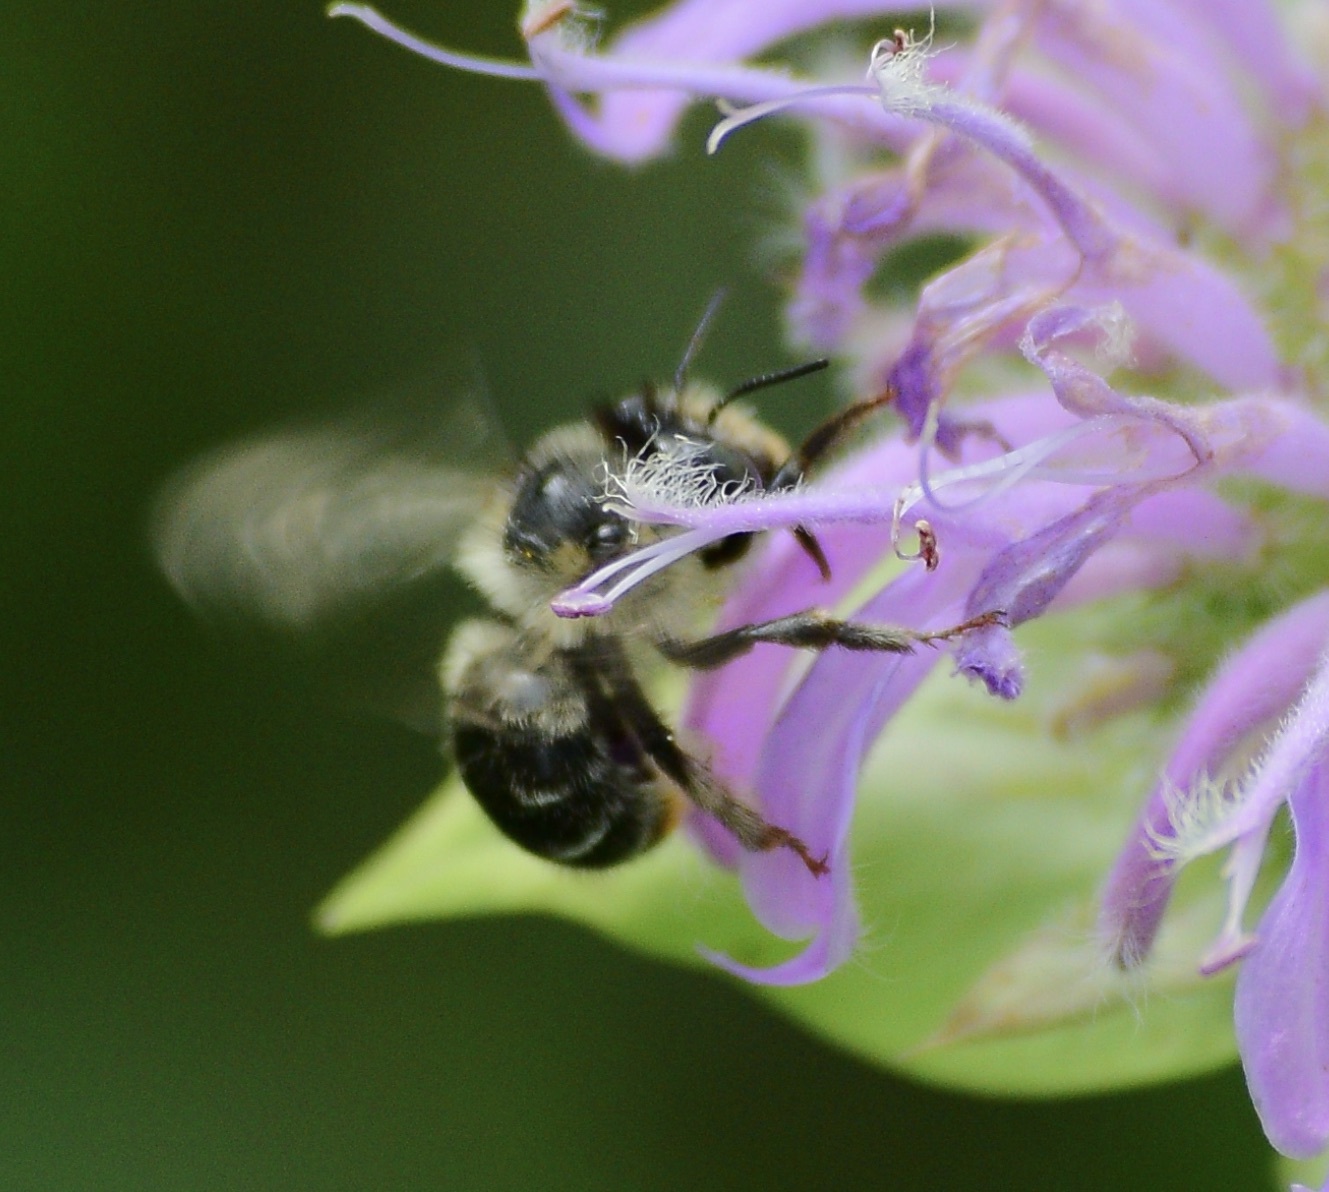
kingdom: Animalia
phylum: Arthropoda
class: Insecta
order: Hymenoptera
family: Apidae
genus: Anthophora
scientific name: Anthophora terminalis
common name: Orange-tipped wood-digger bee
